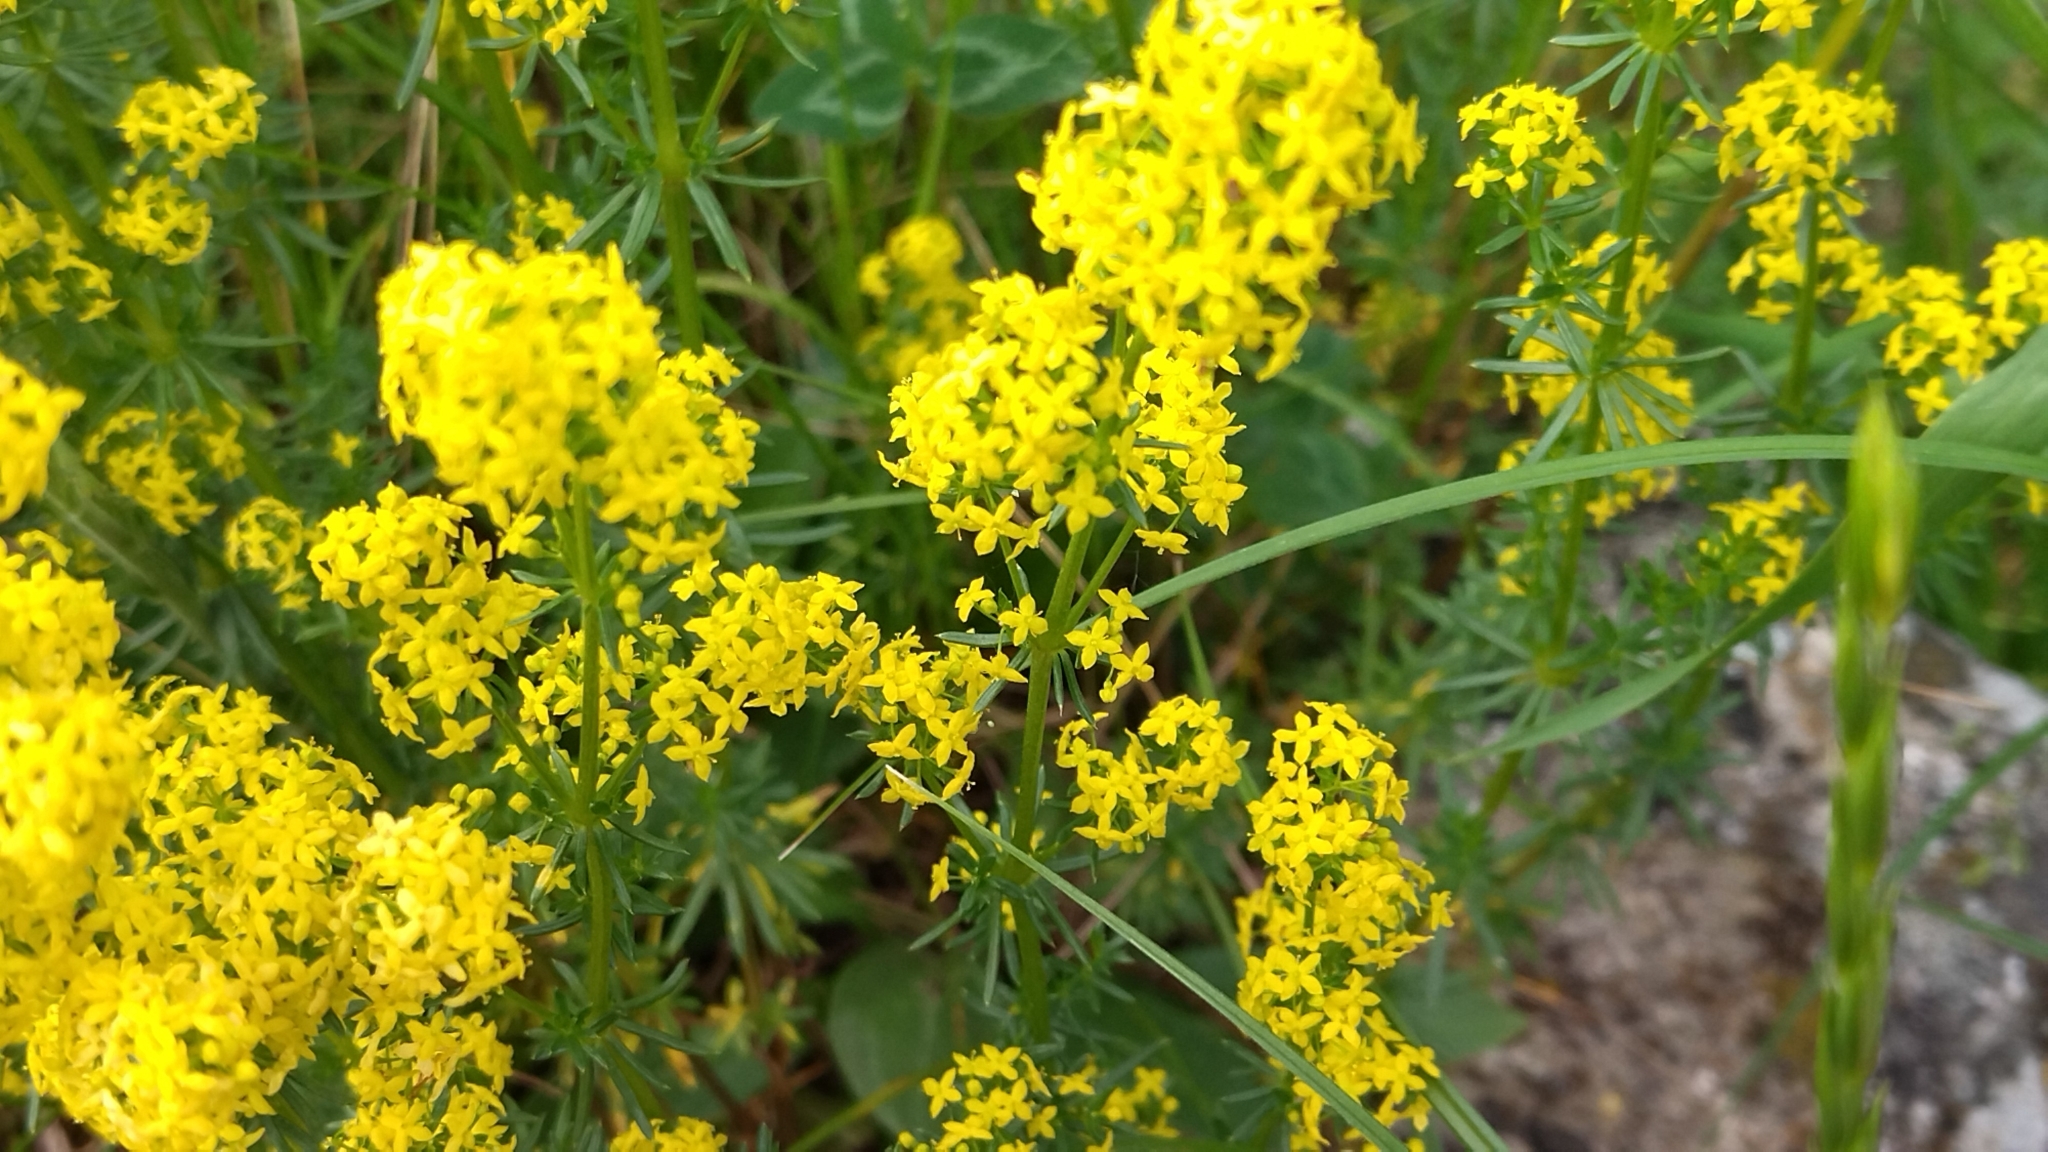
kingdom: Plantae
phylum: Tracheophyta
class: Magnoliopsida
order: Gentianales
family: Rubiaceae
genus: Galium
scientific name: Galium verum
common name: Lady's bedstraw
